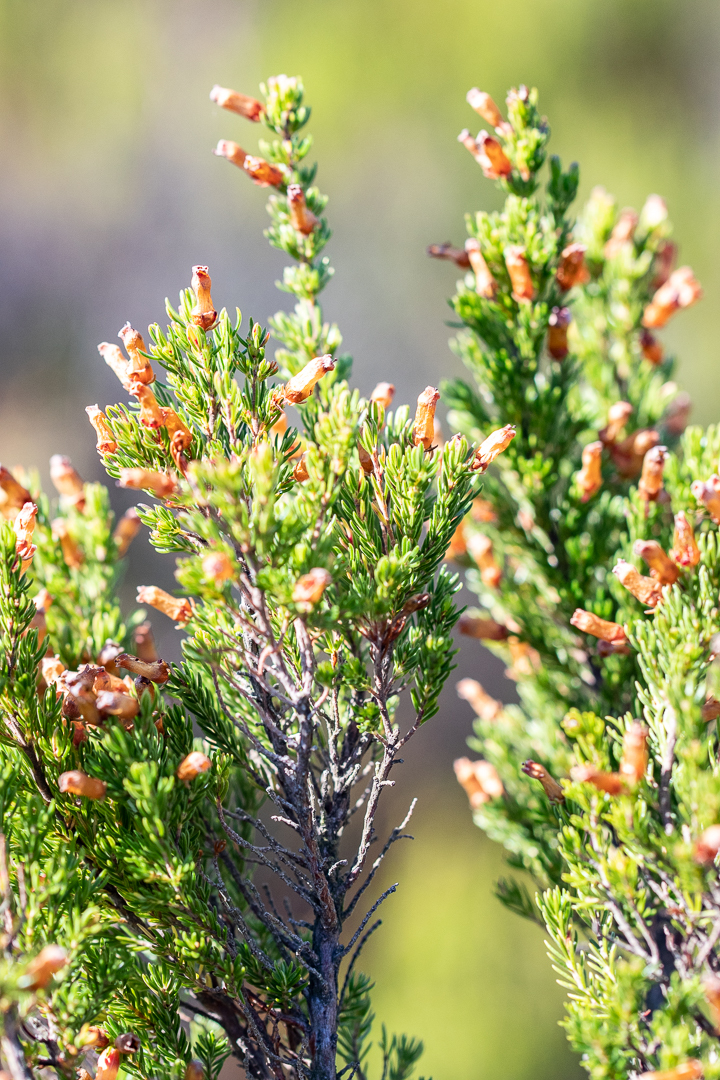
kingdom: Plantae
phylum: Tracheophyta
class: Magnoliopsida
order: Ericales
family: Ericaceae
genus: Erica
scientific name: Erica sitiens
